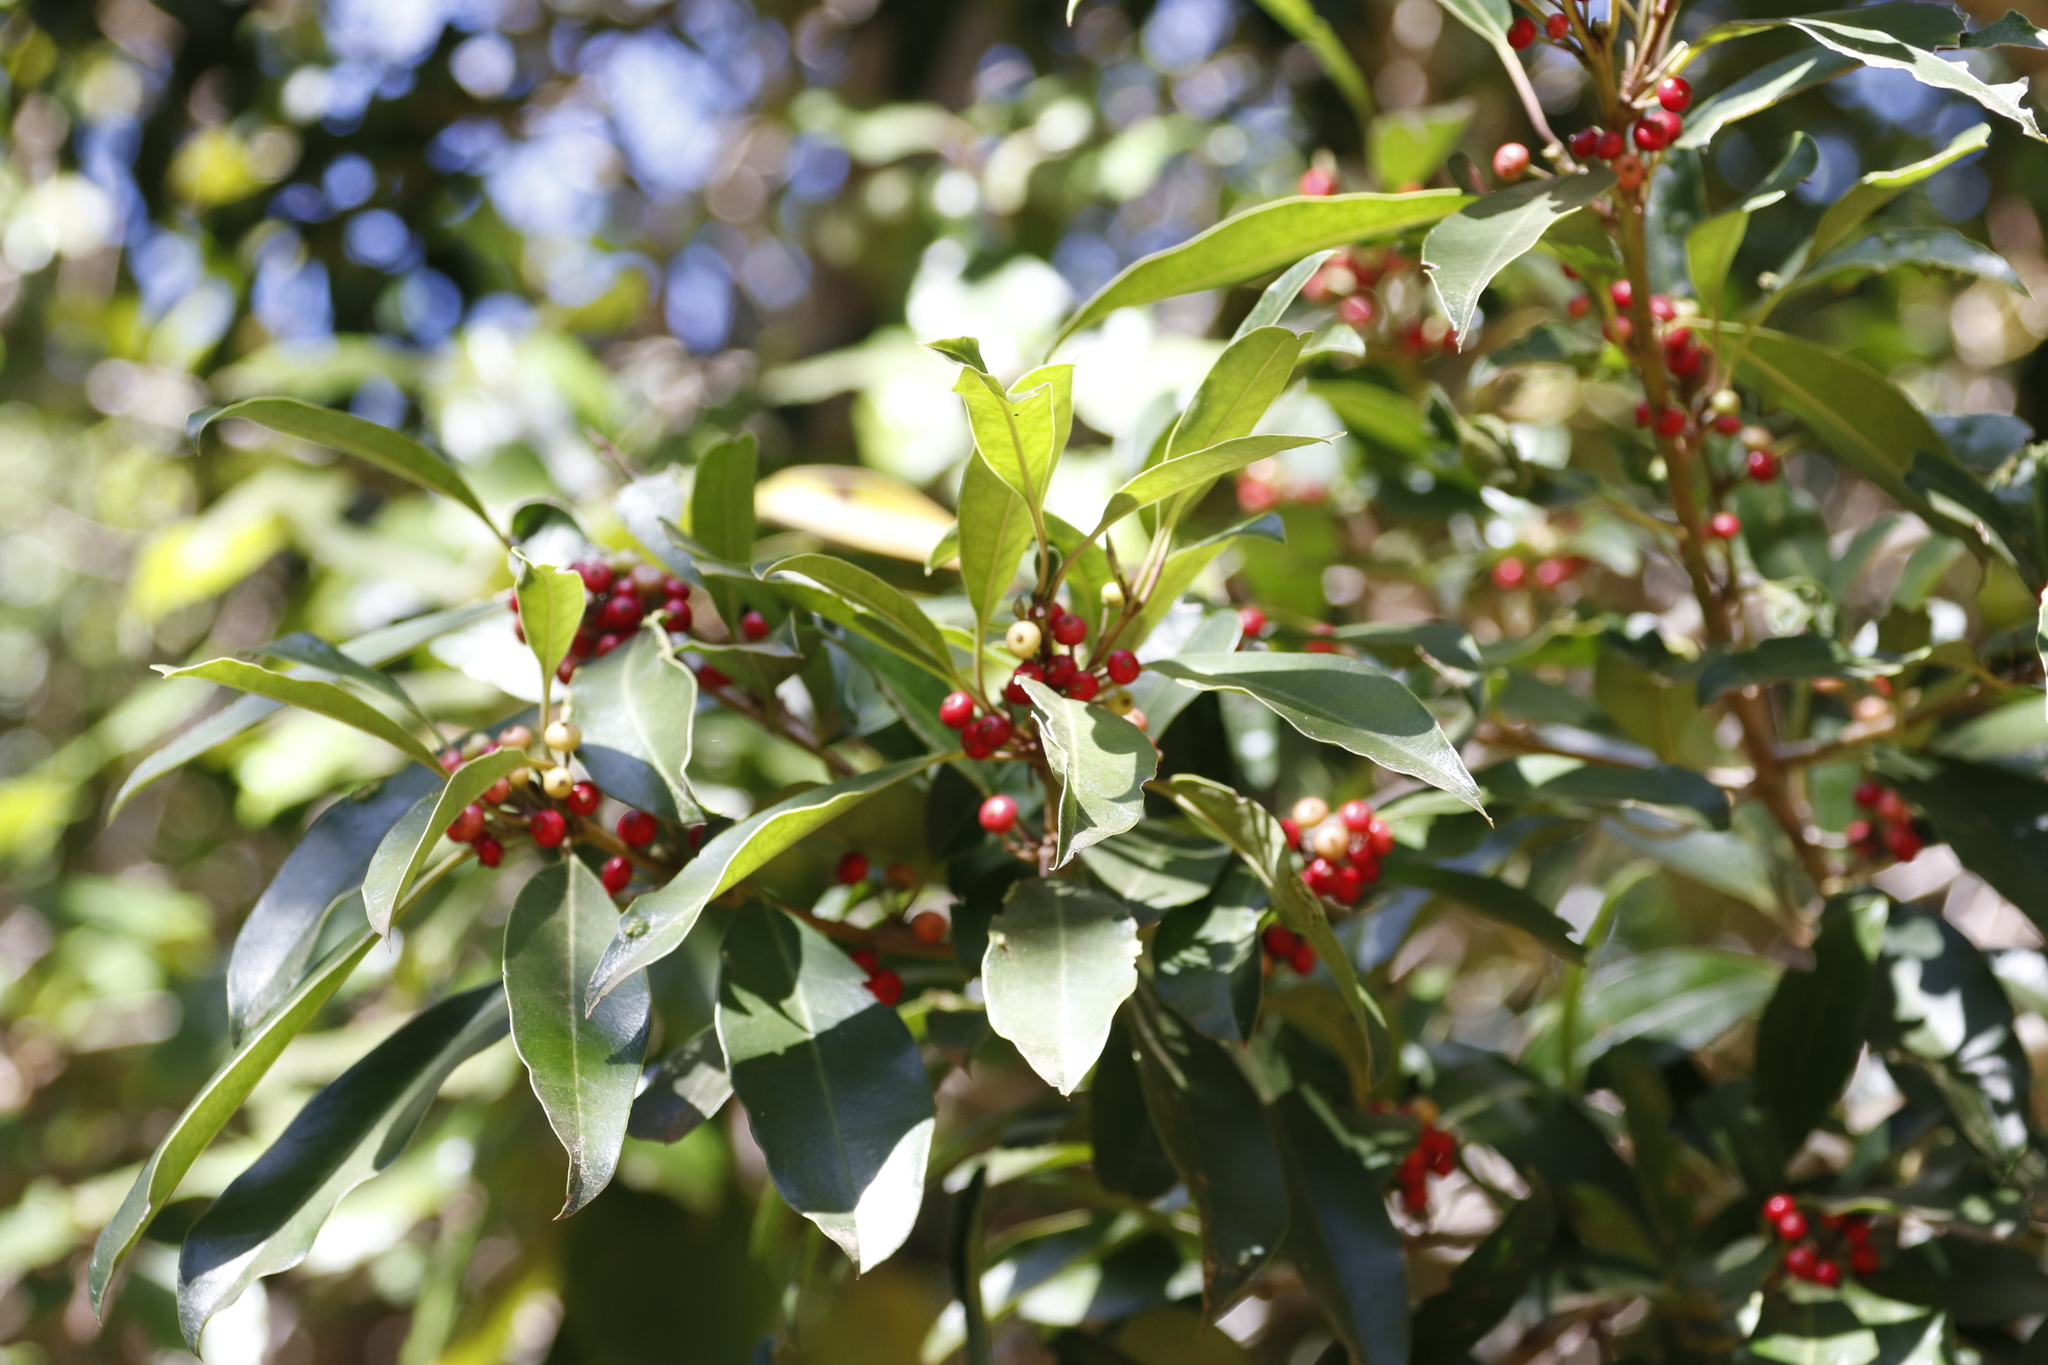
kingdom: Plantae
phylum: Tracheophyta
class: Magnoliopsida
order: Aquifoliales
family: Aquifoliaceae
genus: Ilex
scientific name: Ilex mitis
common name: African holly
